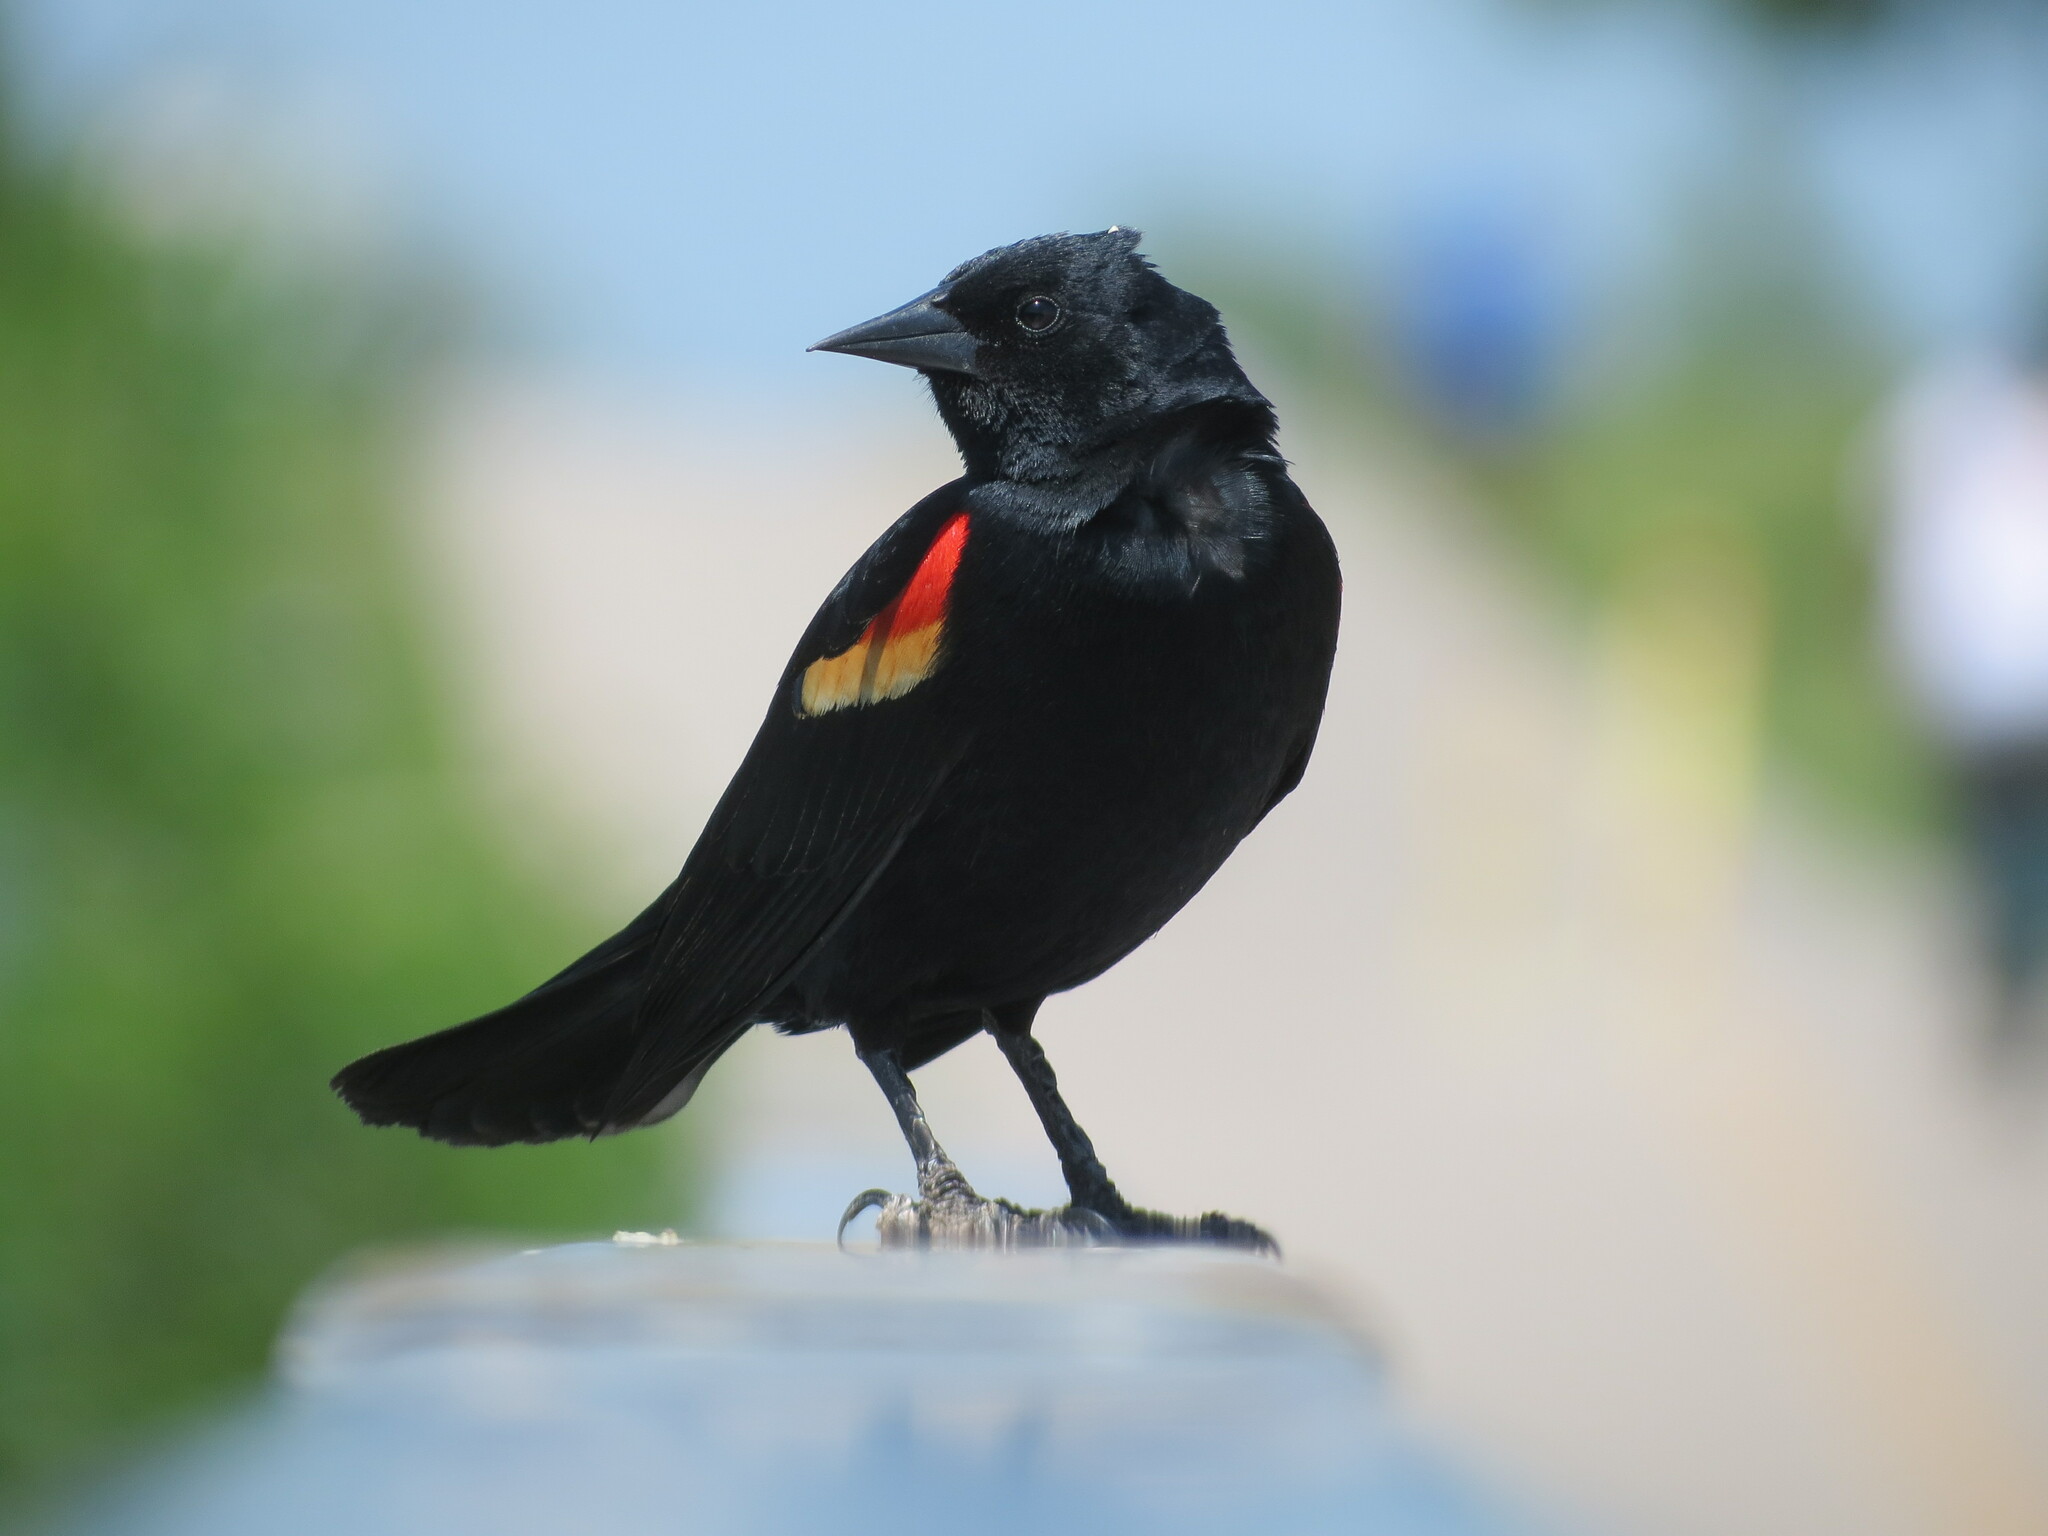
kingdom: Animalia
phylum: Chordata
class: Aves
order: Passeriformes
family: Icteridae
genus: Agelaius
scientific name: Agelaius phoeniceus
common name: Red-winged blackbird
